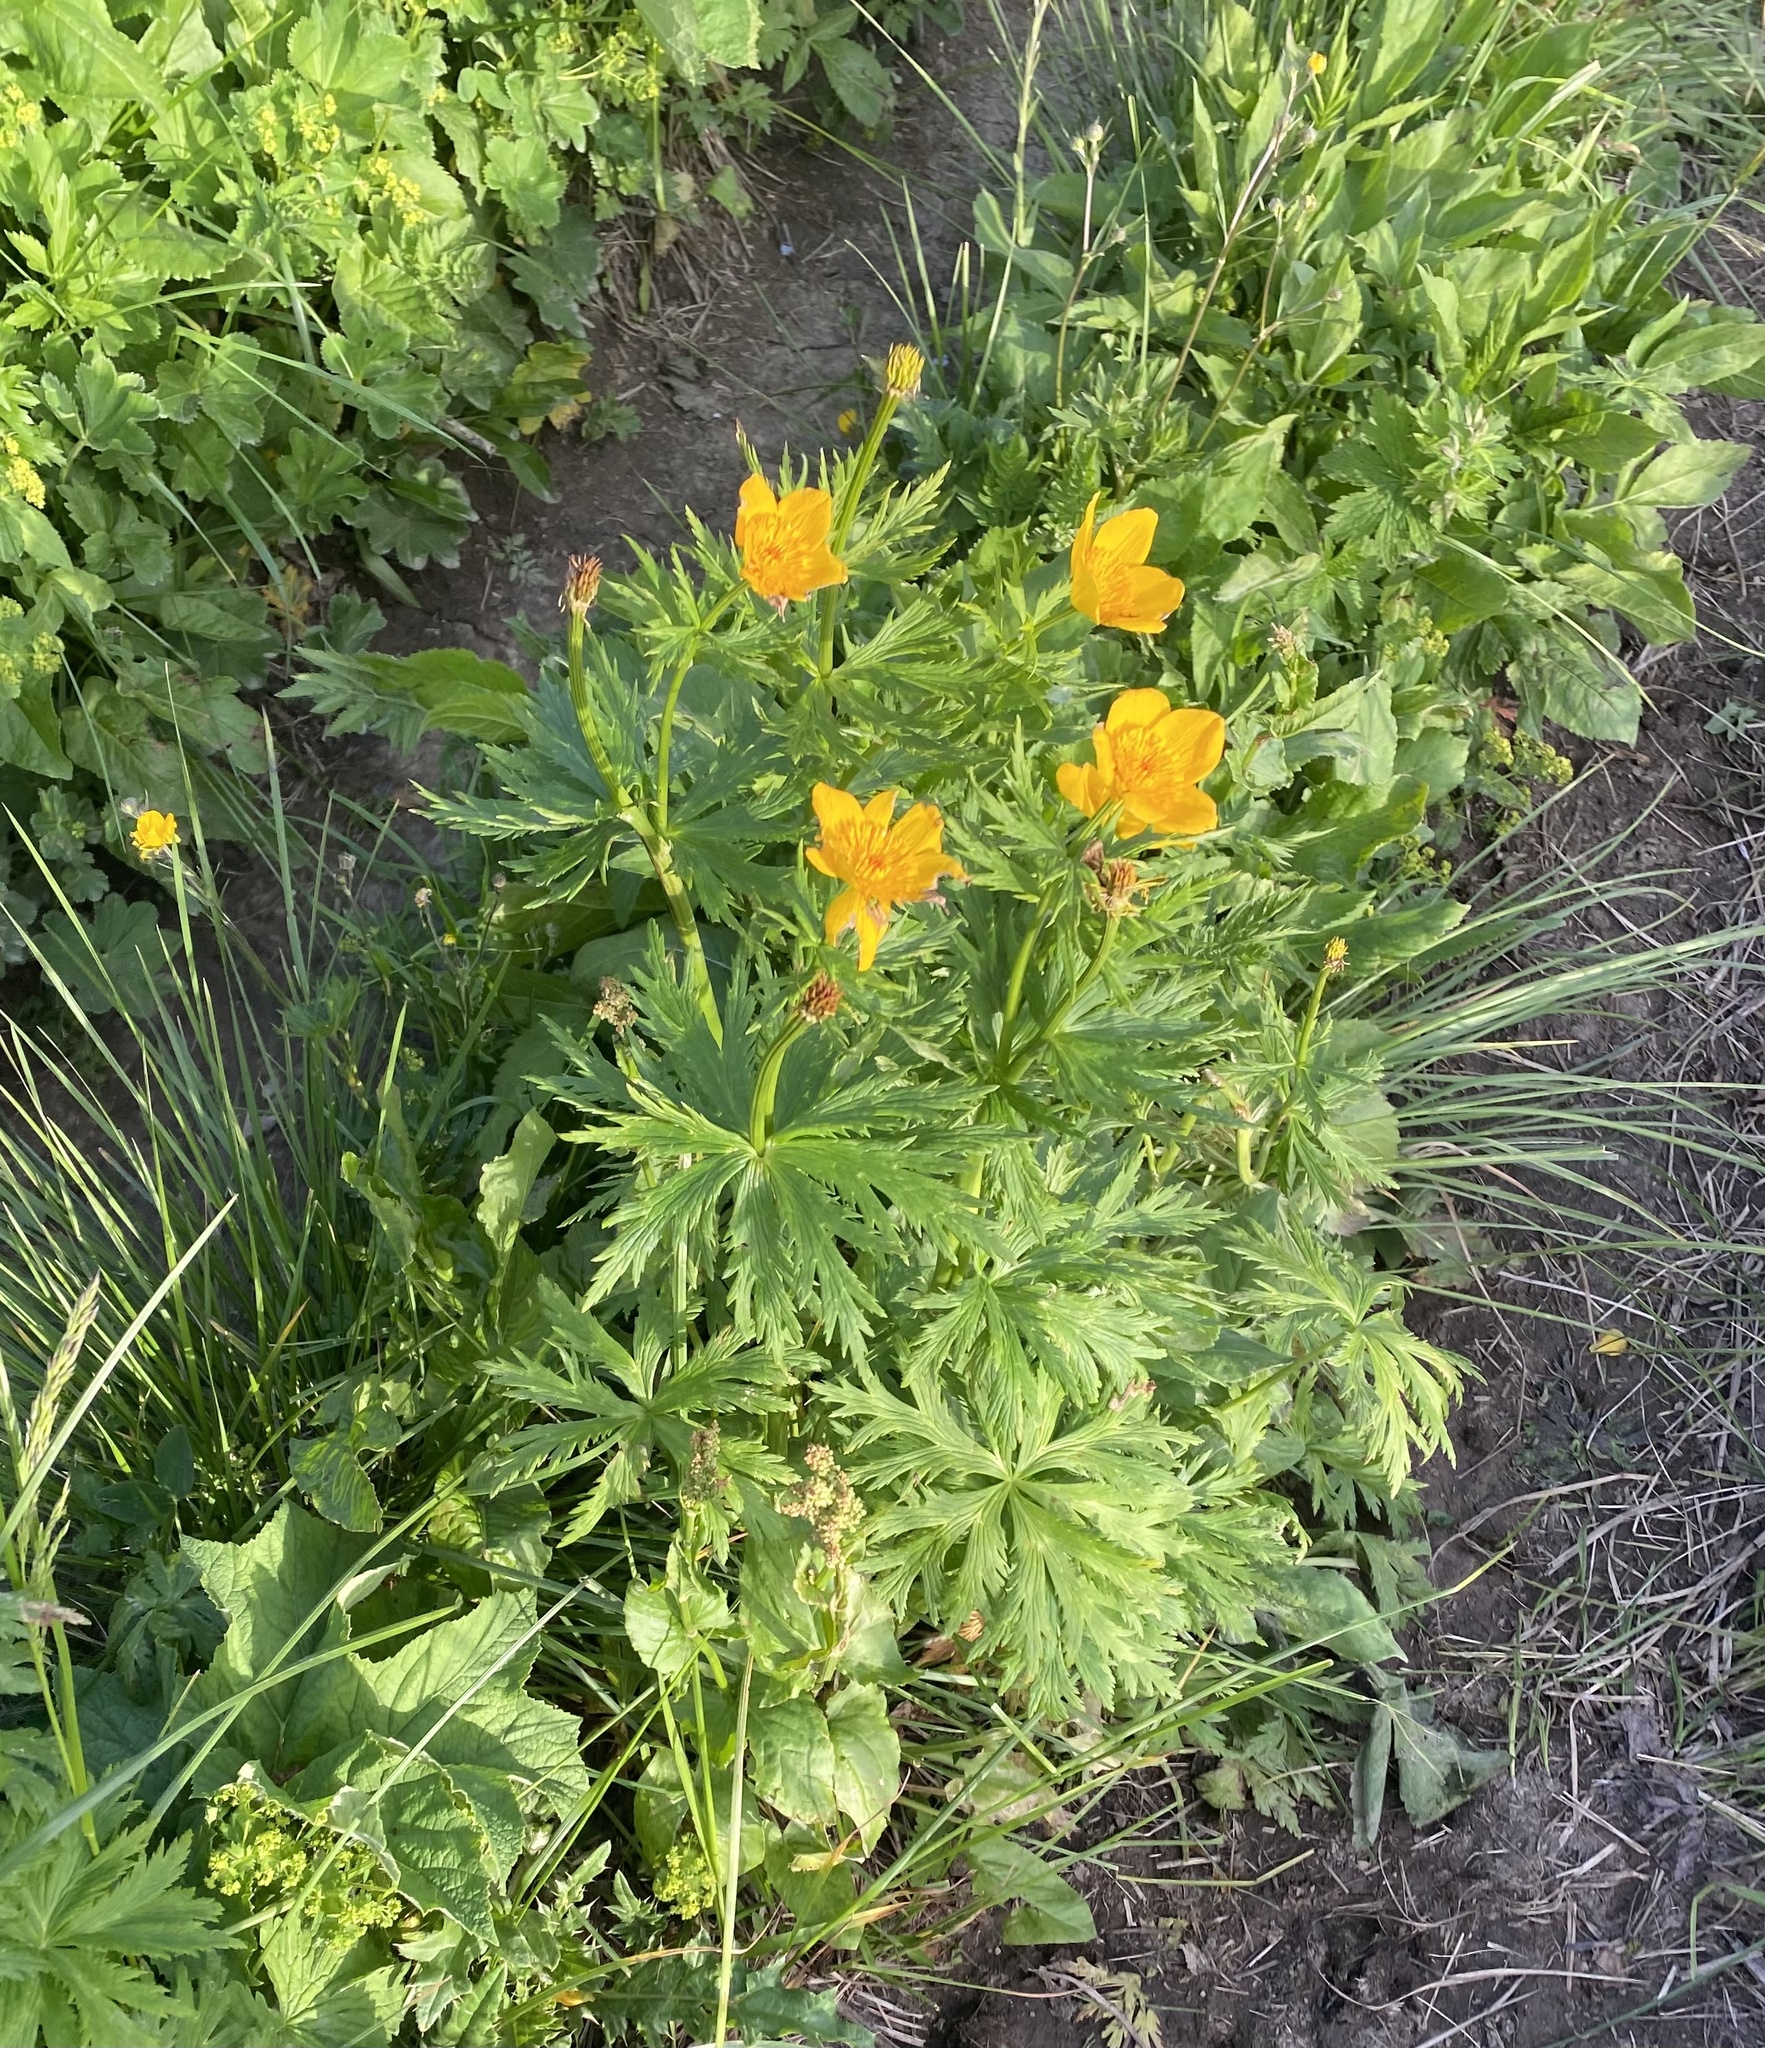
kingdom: Plantae
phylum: Tracheophyta
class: Magnoliopsida
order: Ranunculales
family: Ranunculaceae
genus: Trollius
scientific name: Trollius ranunculinus
